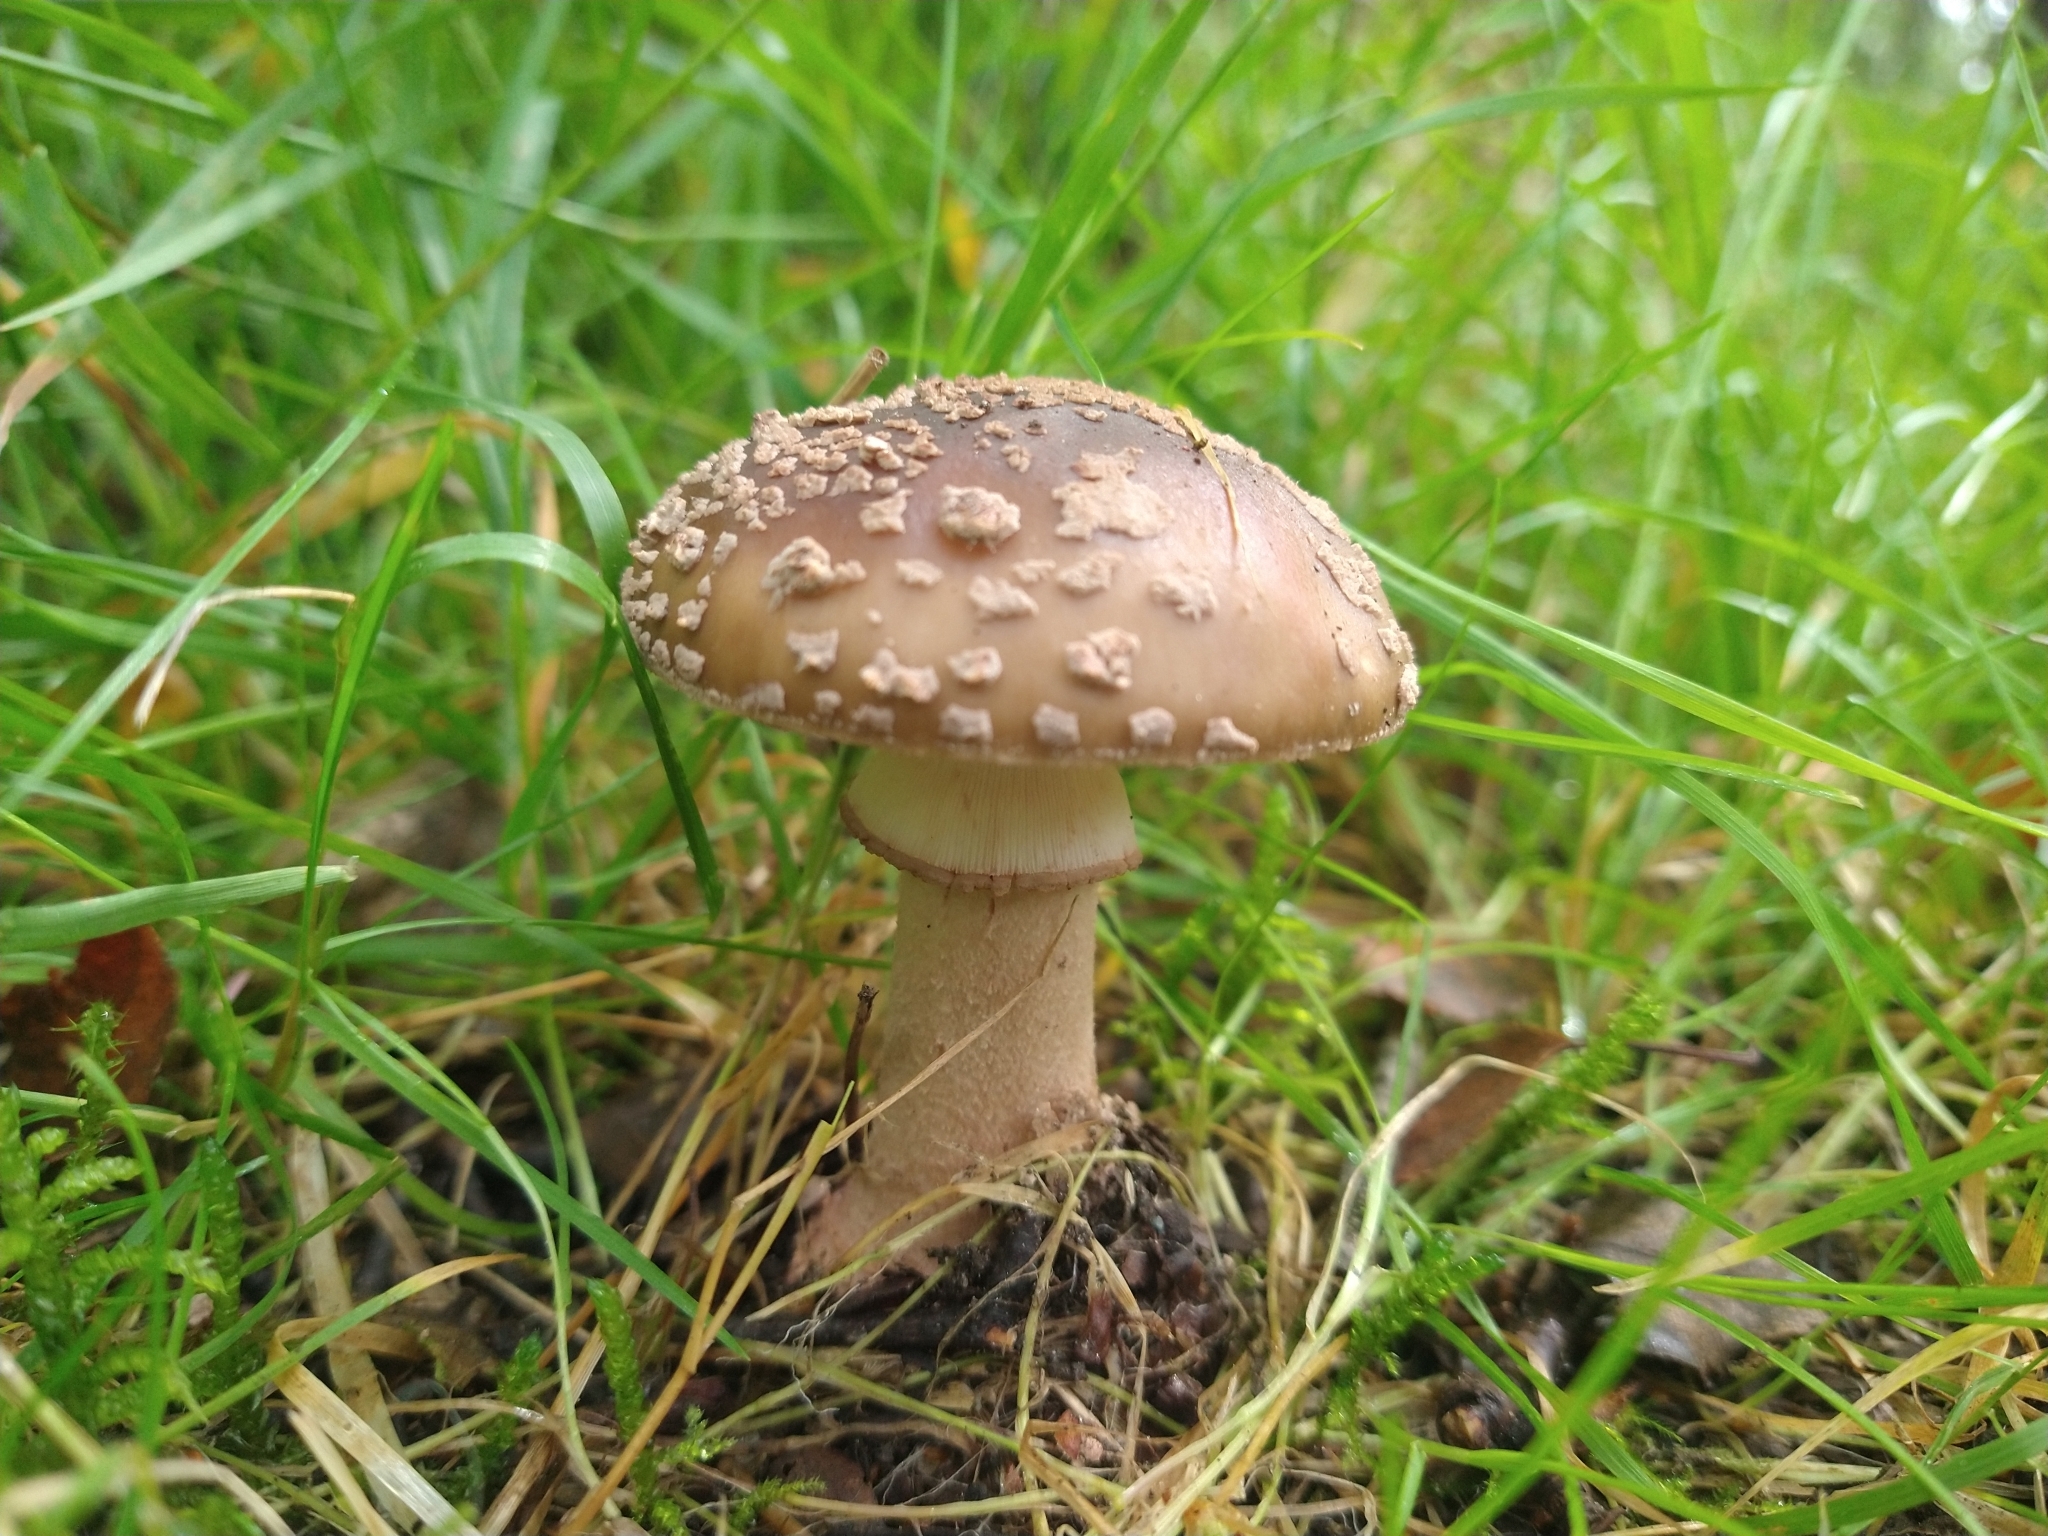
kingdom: Fungi
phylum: Basidiomycota
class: Agaricomycetes
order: Agaricales
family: Amanitaceae
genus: Amanita
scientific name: Amanita rubescens
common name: Blusher
